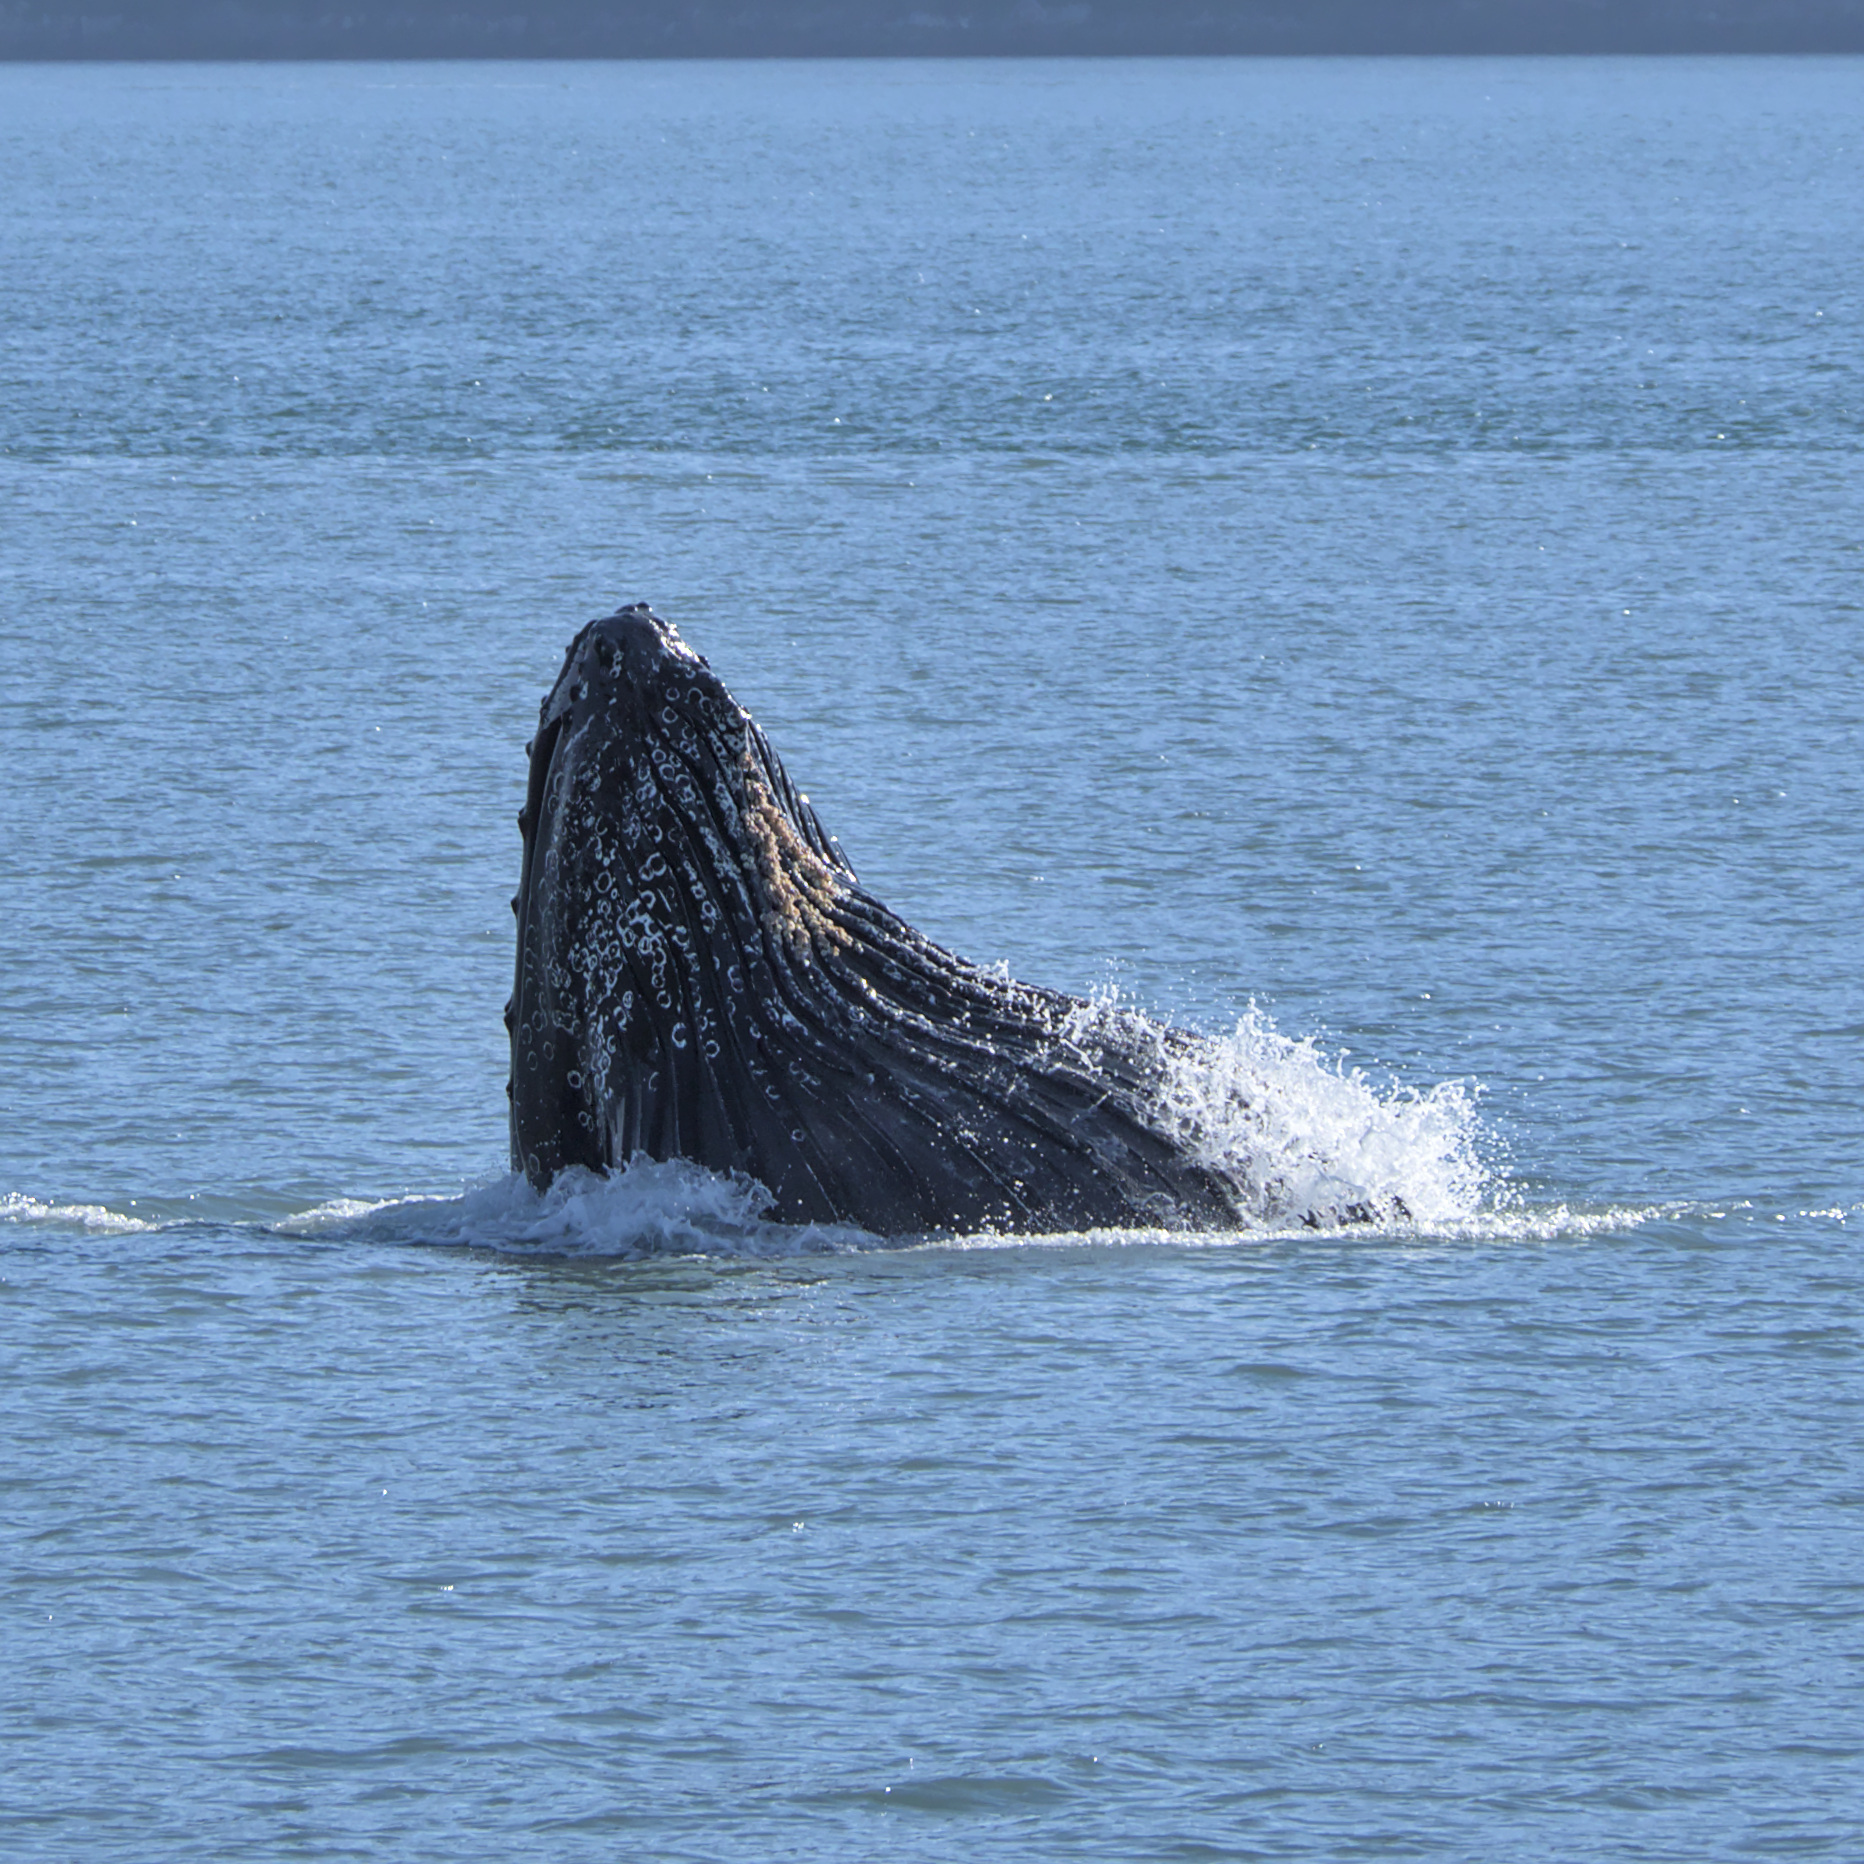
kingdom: Animalia
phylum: Chordata
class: Mammalia
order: Cetacea
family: Balaenopteridae
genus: Megaptera
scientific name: Megaptera novaeangliae
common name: Humpback whale
